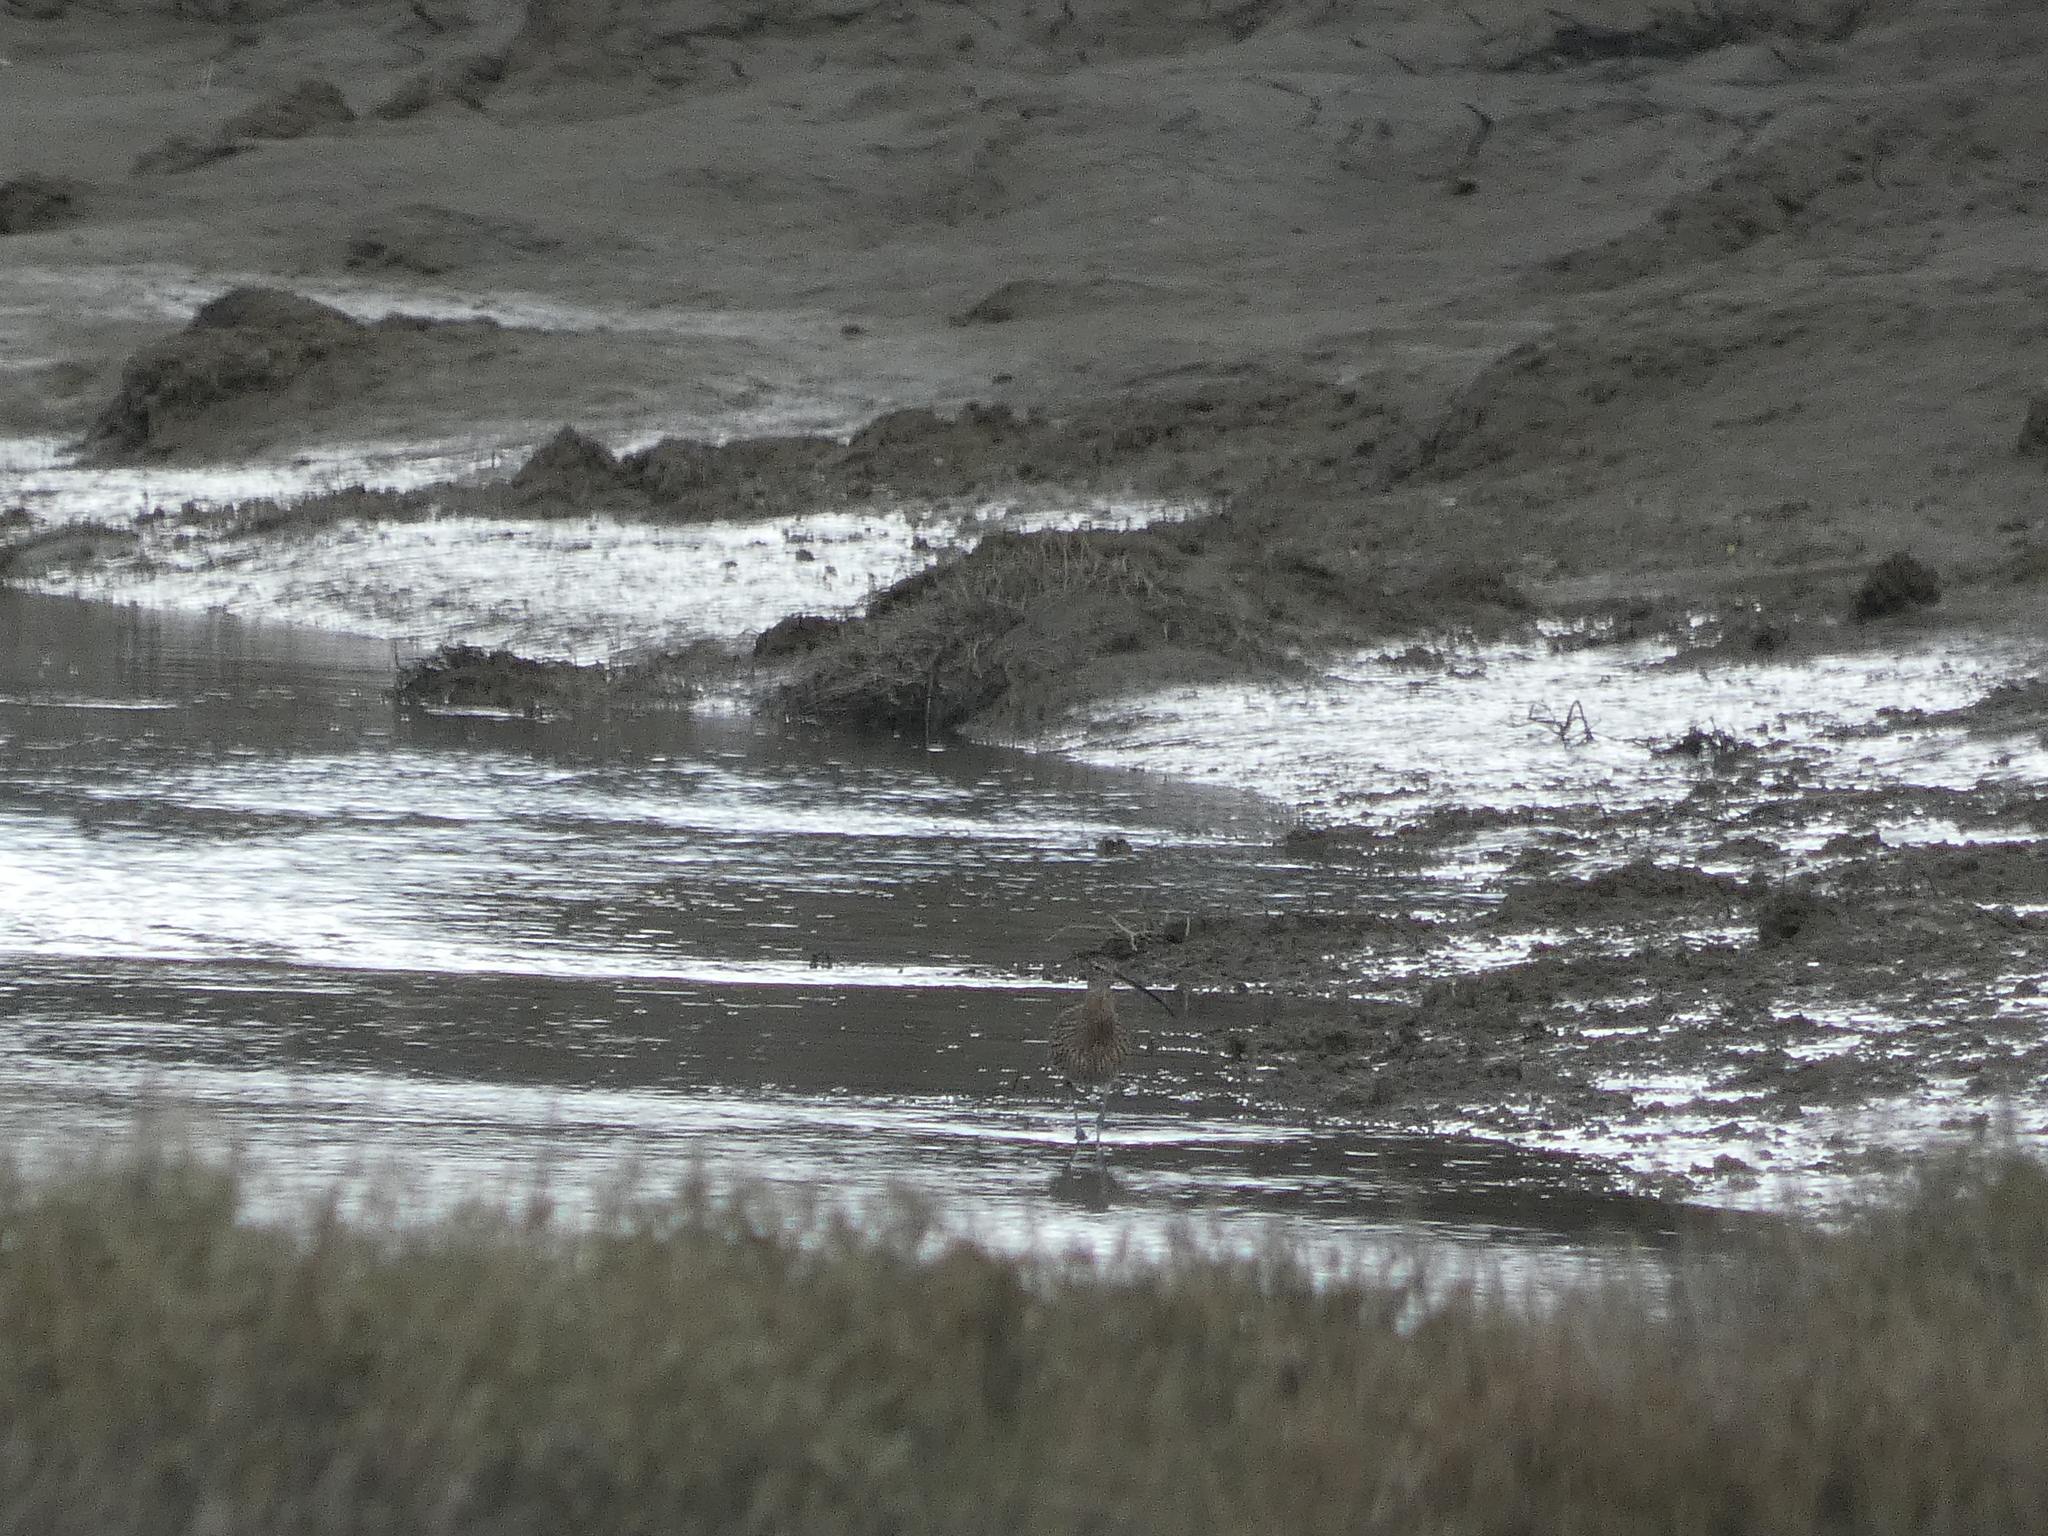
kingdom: Animalia
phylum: Chordata
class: Aves
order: Charadriiformes
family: Scolopacidae
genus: Numenius
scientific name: Numenius arquata
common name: Eurasian curlew
